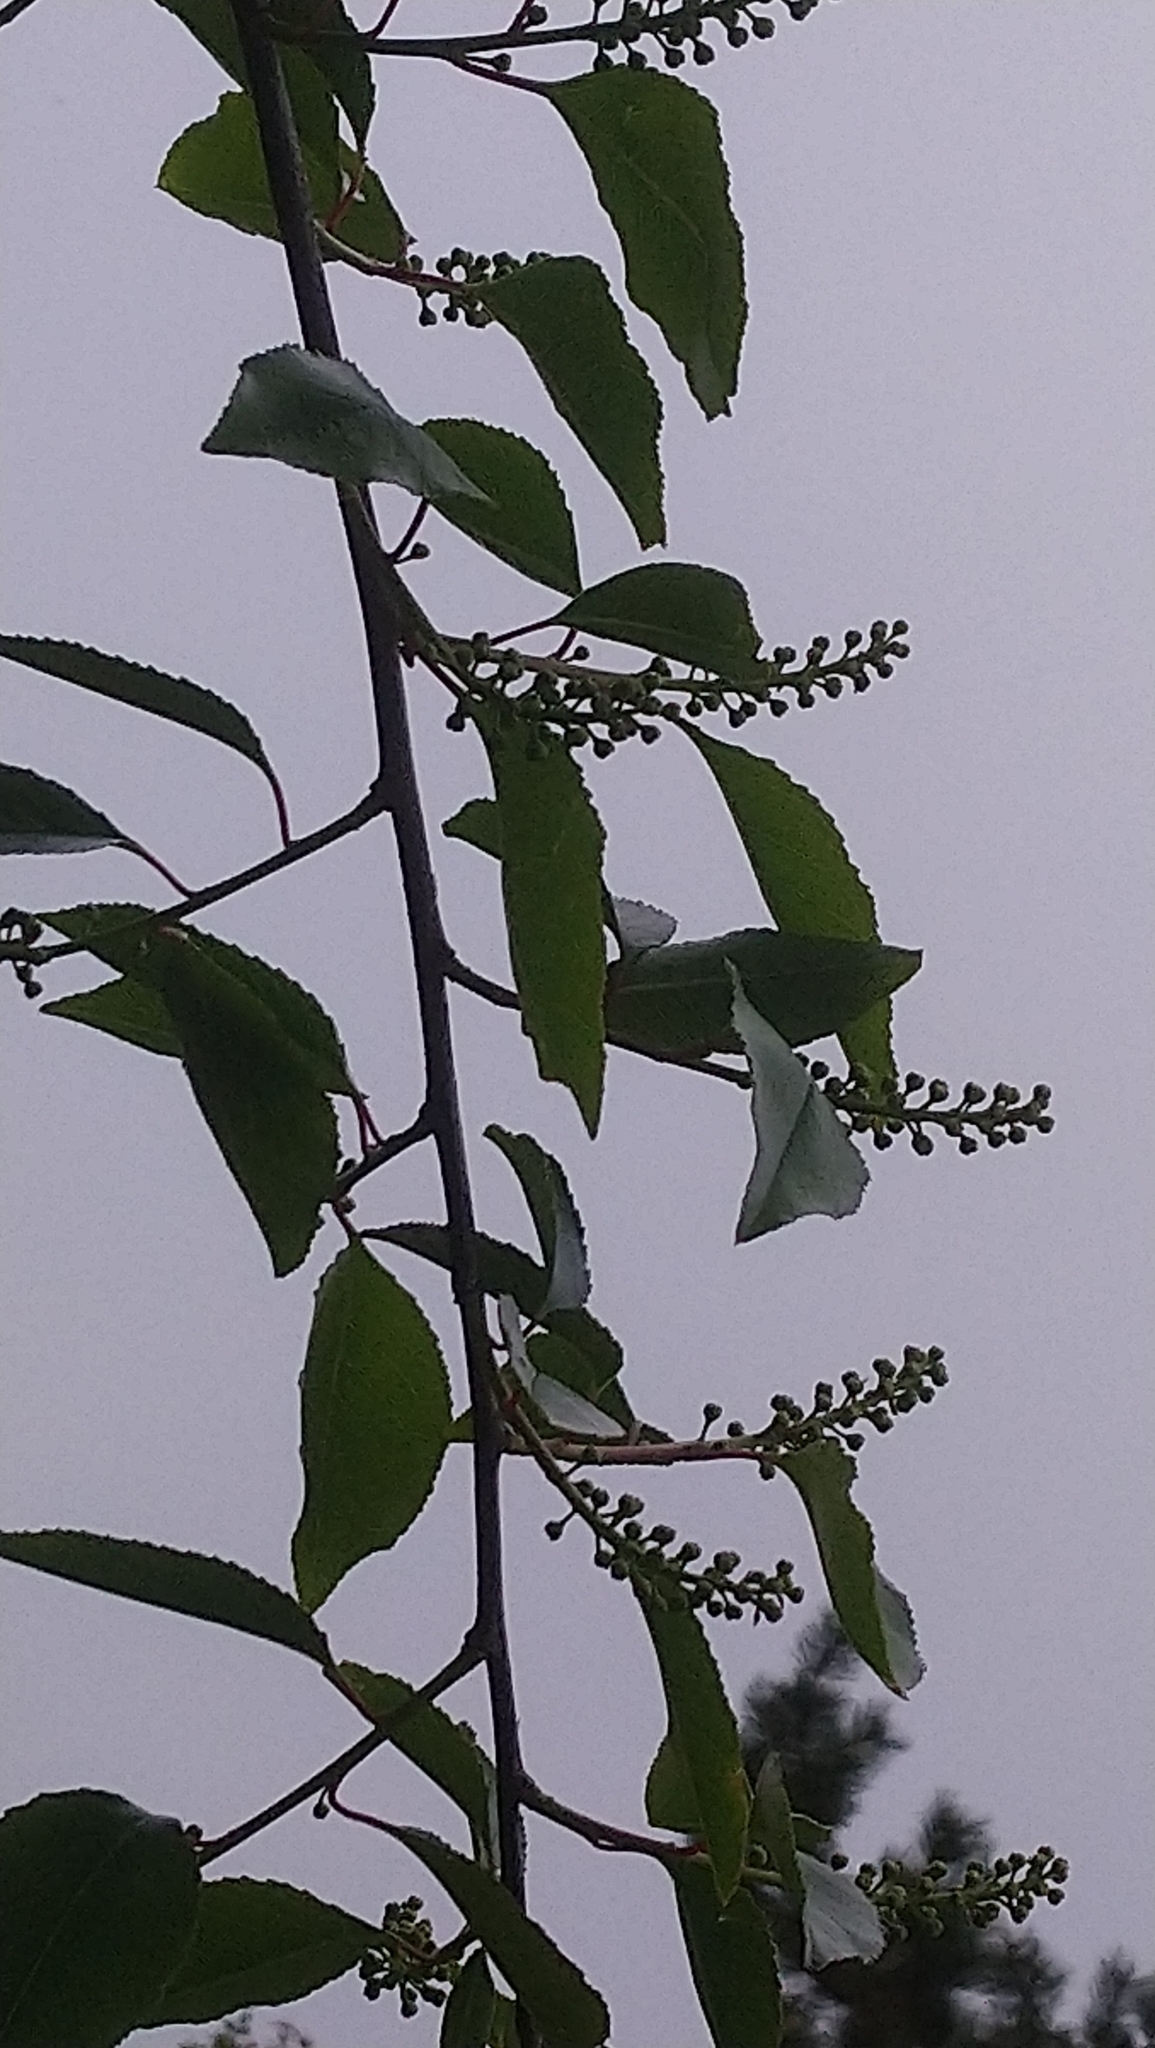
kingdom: Plantae
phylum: Tracheophyta
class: Magnoliopsida
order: Rosales
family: Rosaceae
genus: Prunus
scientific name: Prunus serotina
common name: Black cherry
